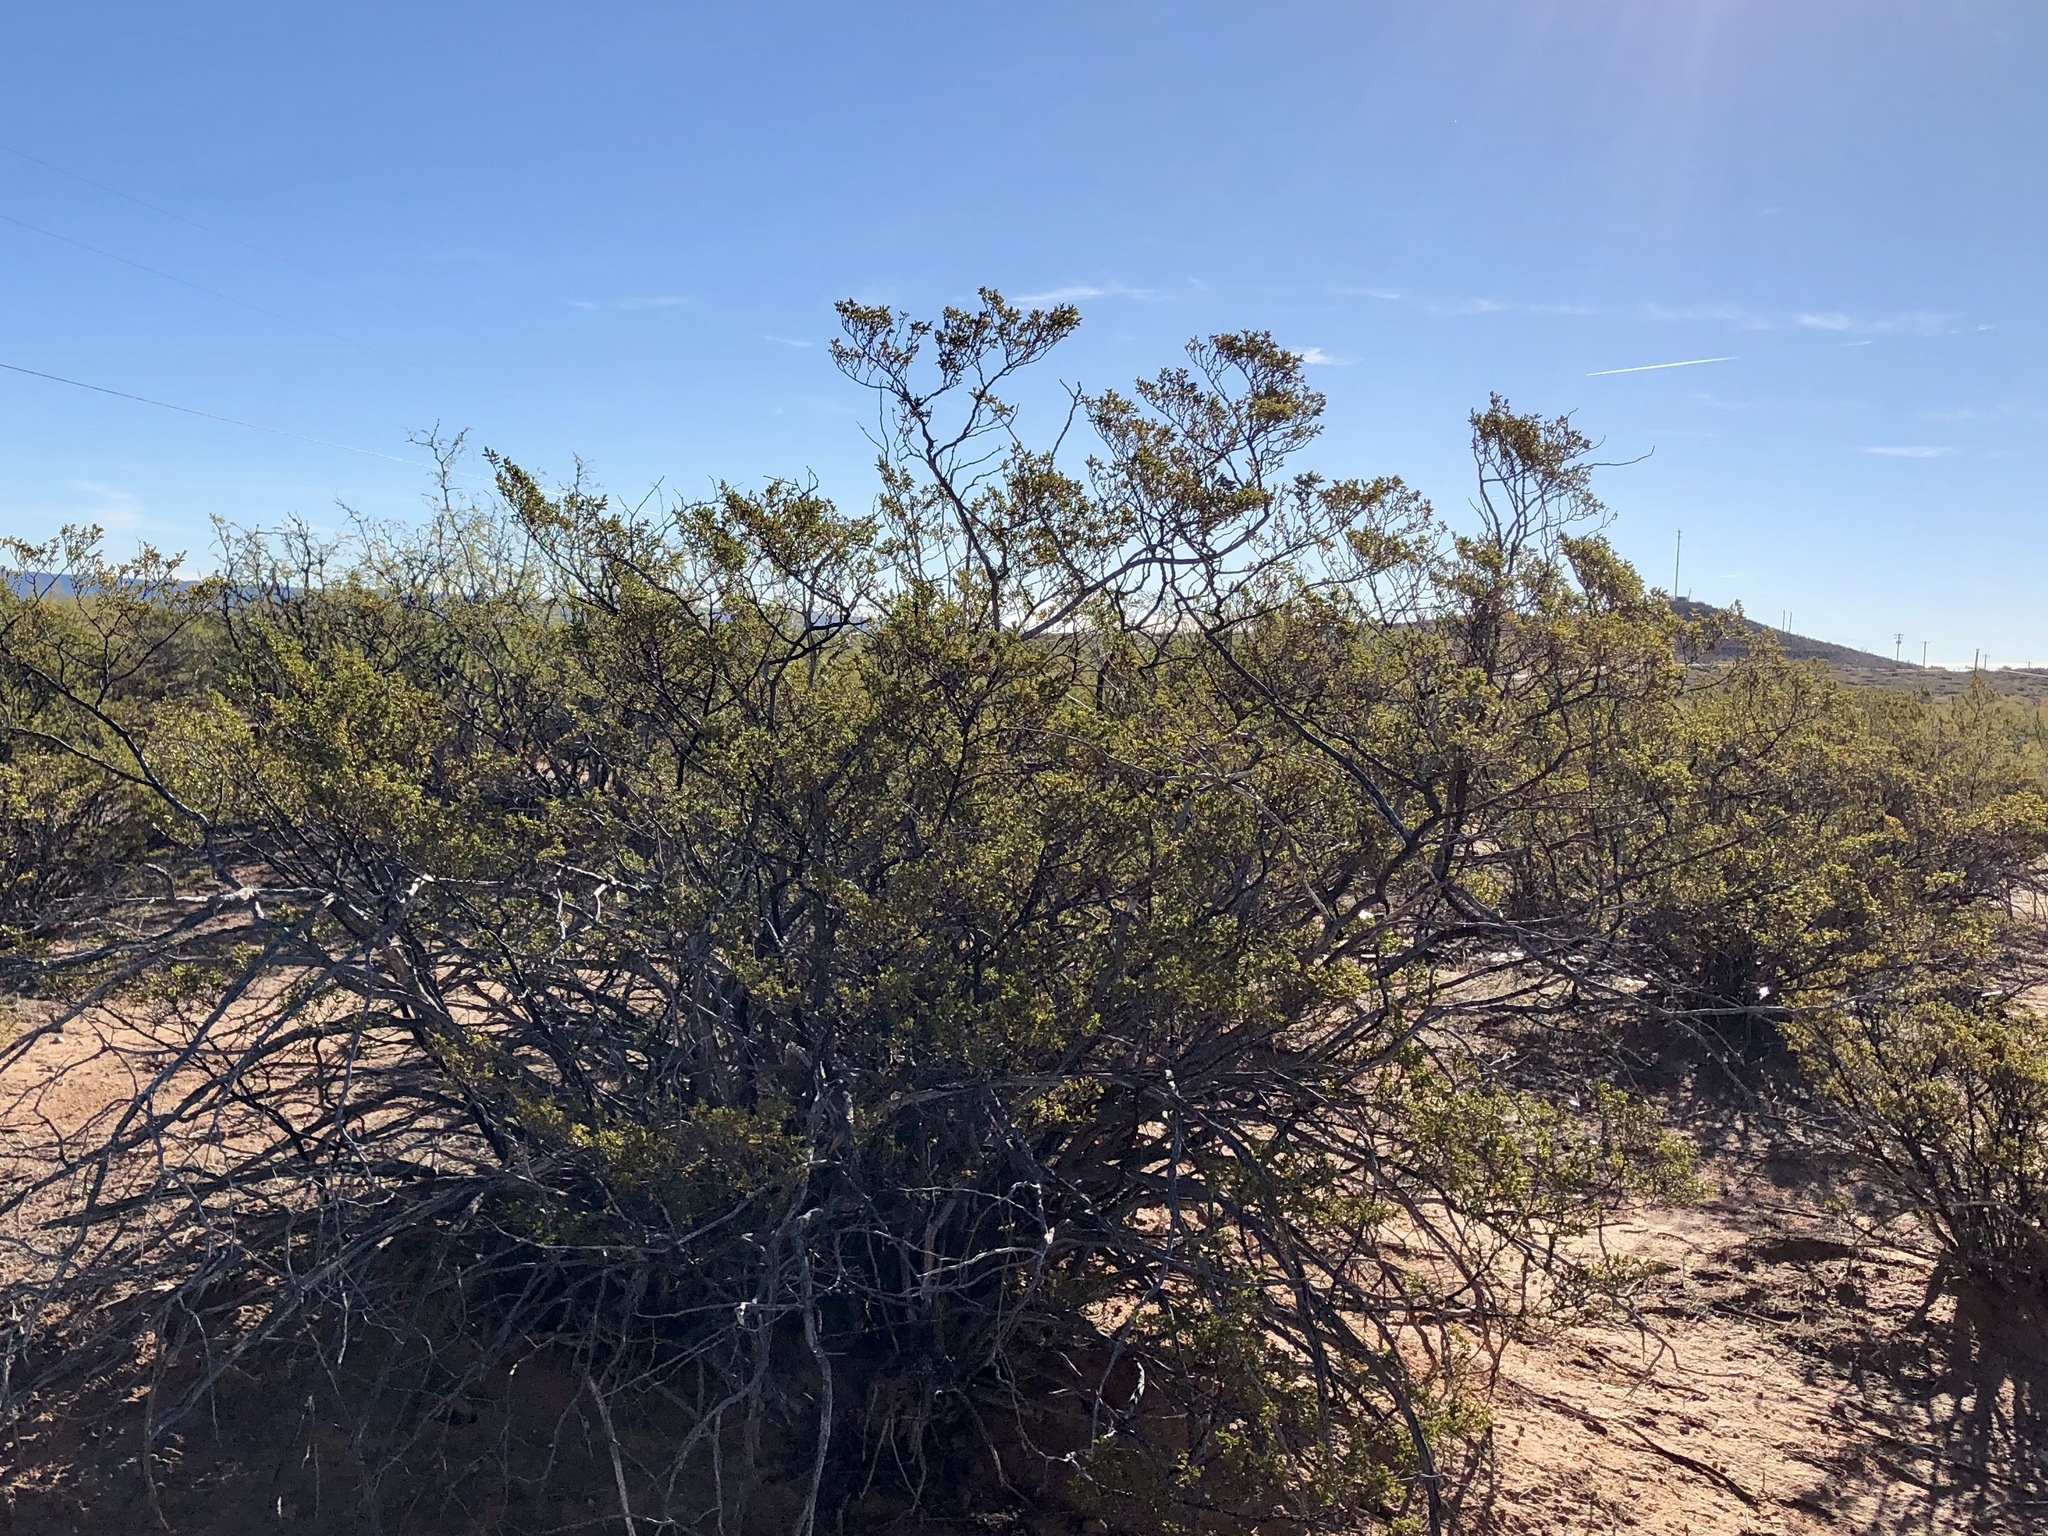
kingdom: Plantae
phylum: Tracheophyta
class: Magnoliopsida
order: Zygophyllales
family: Zygophyllaceae
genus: Larrea
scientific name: Larrea tridentata
